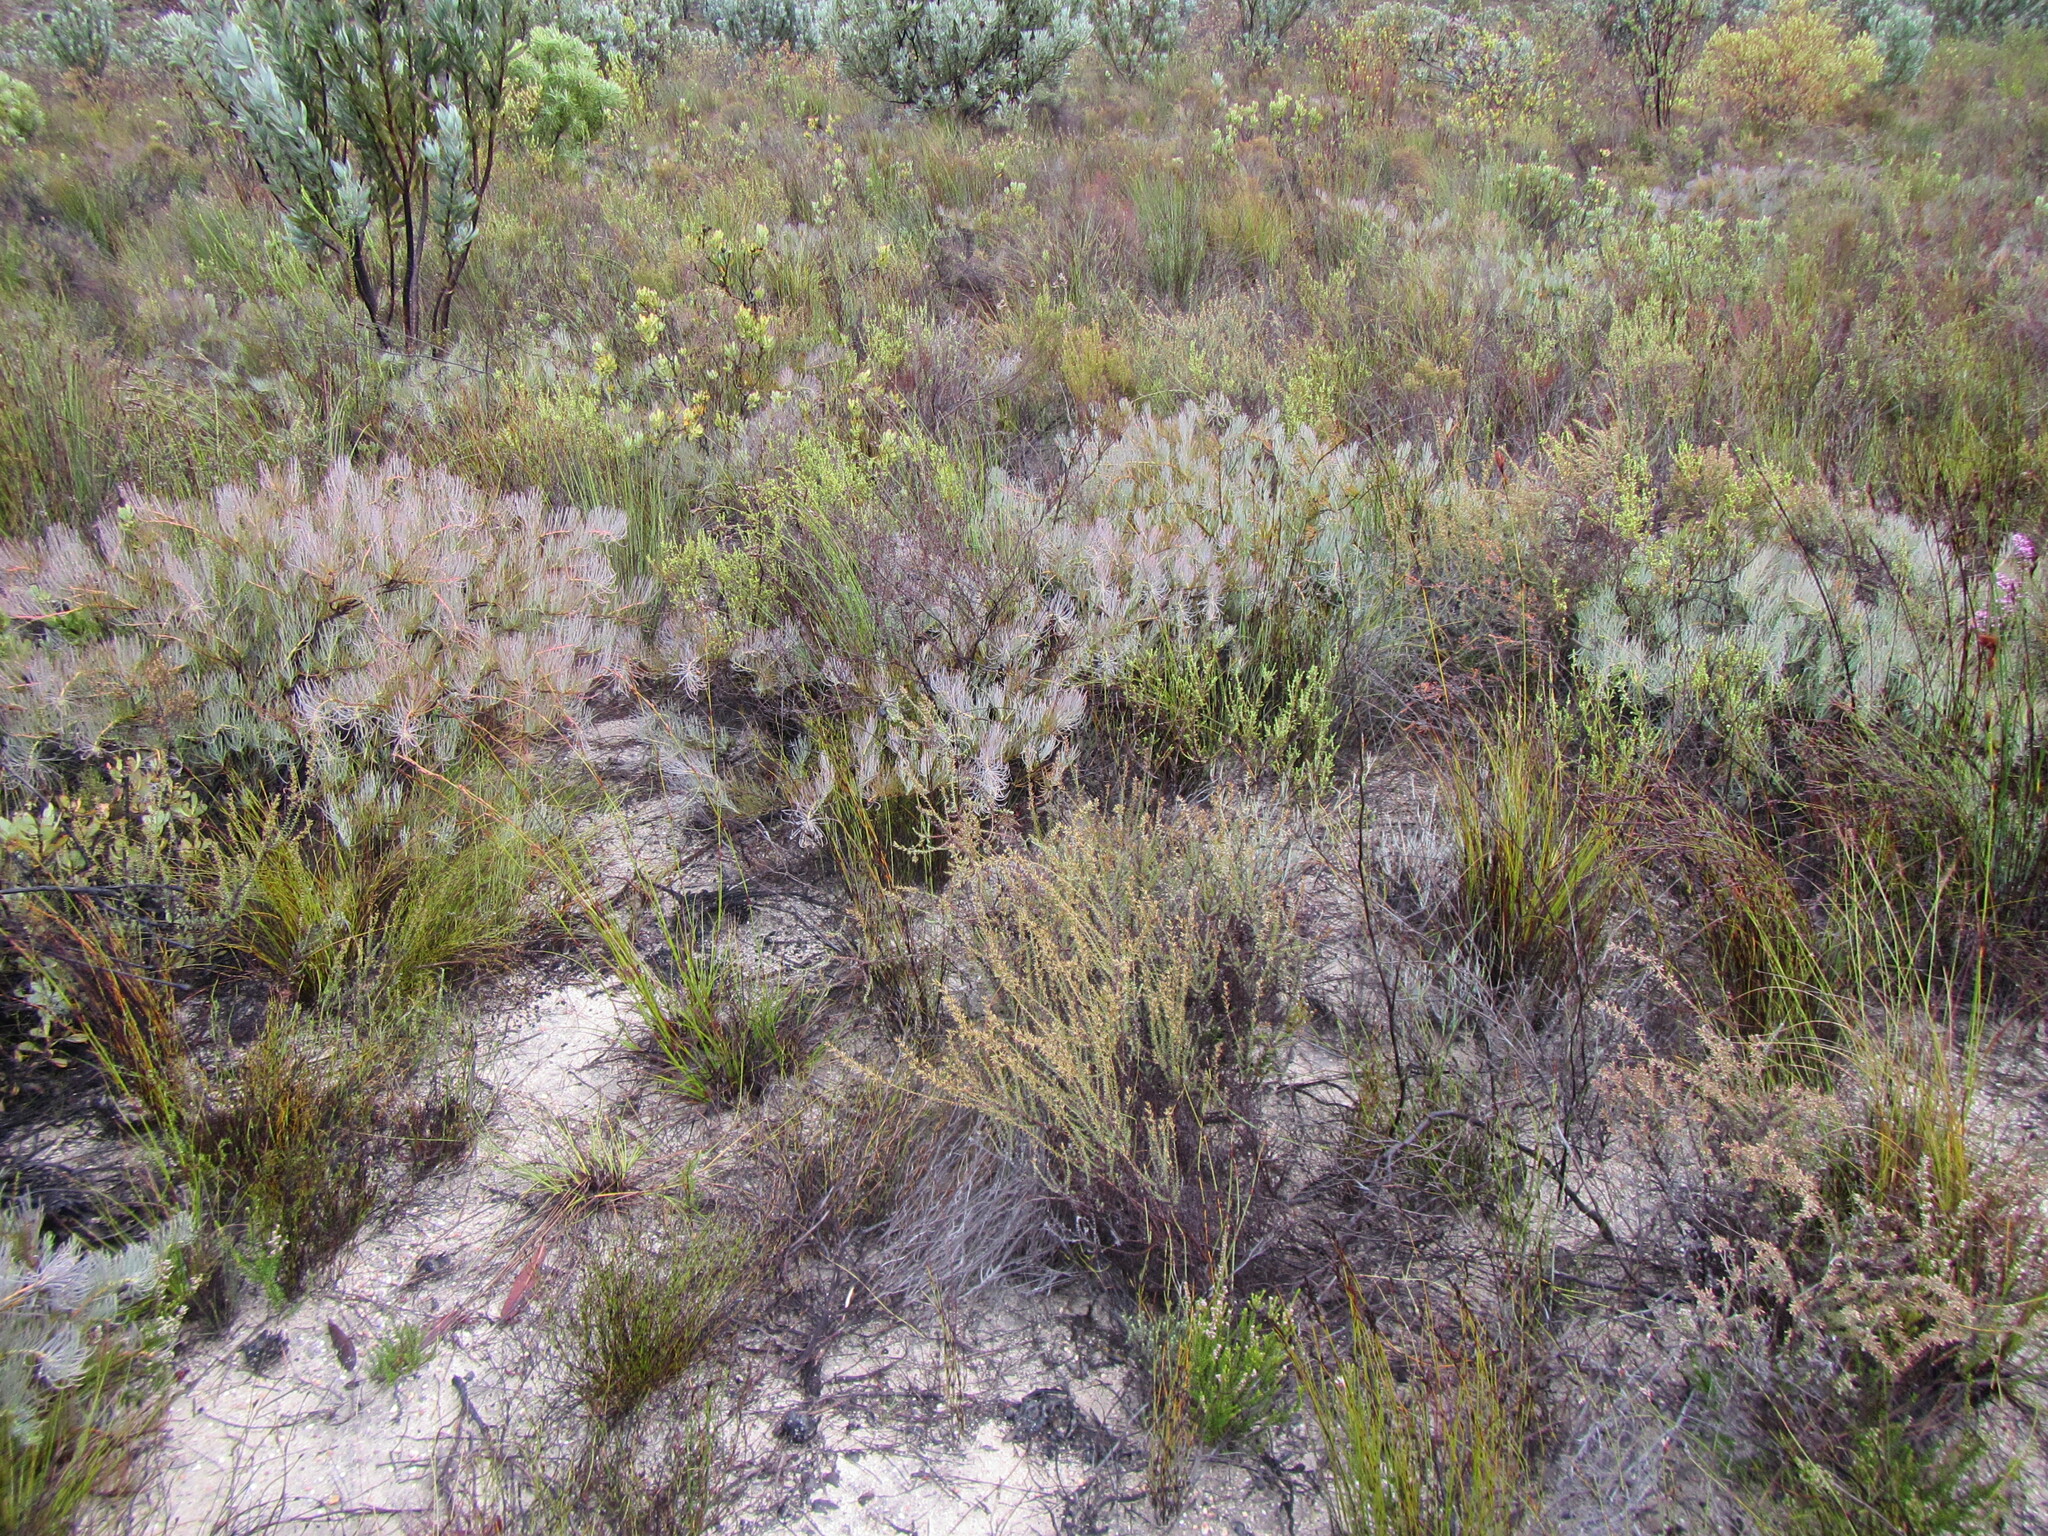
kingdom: Plantae
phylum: Tracheophyta
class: Magnoliopsida
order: Proteales
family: Proteaceae
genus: Protea
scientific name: Protea witzenbergiana
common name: Swan sugarbush
